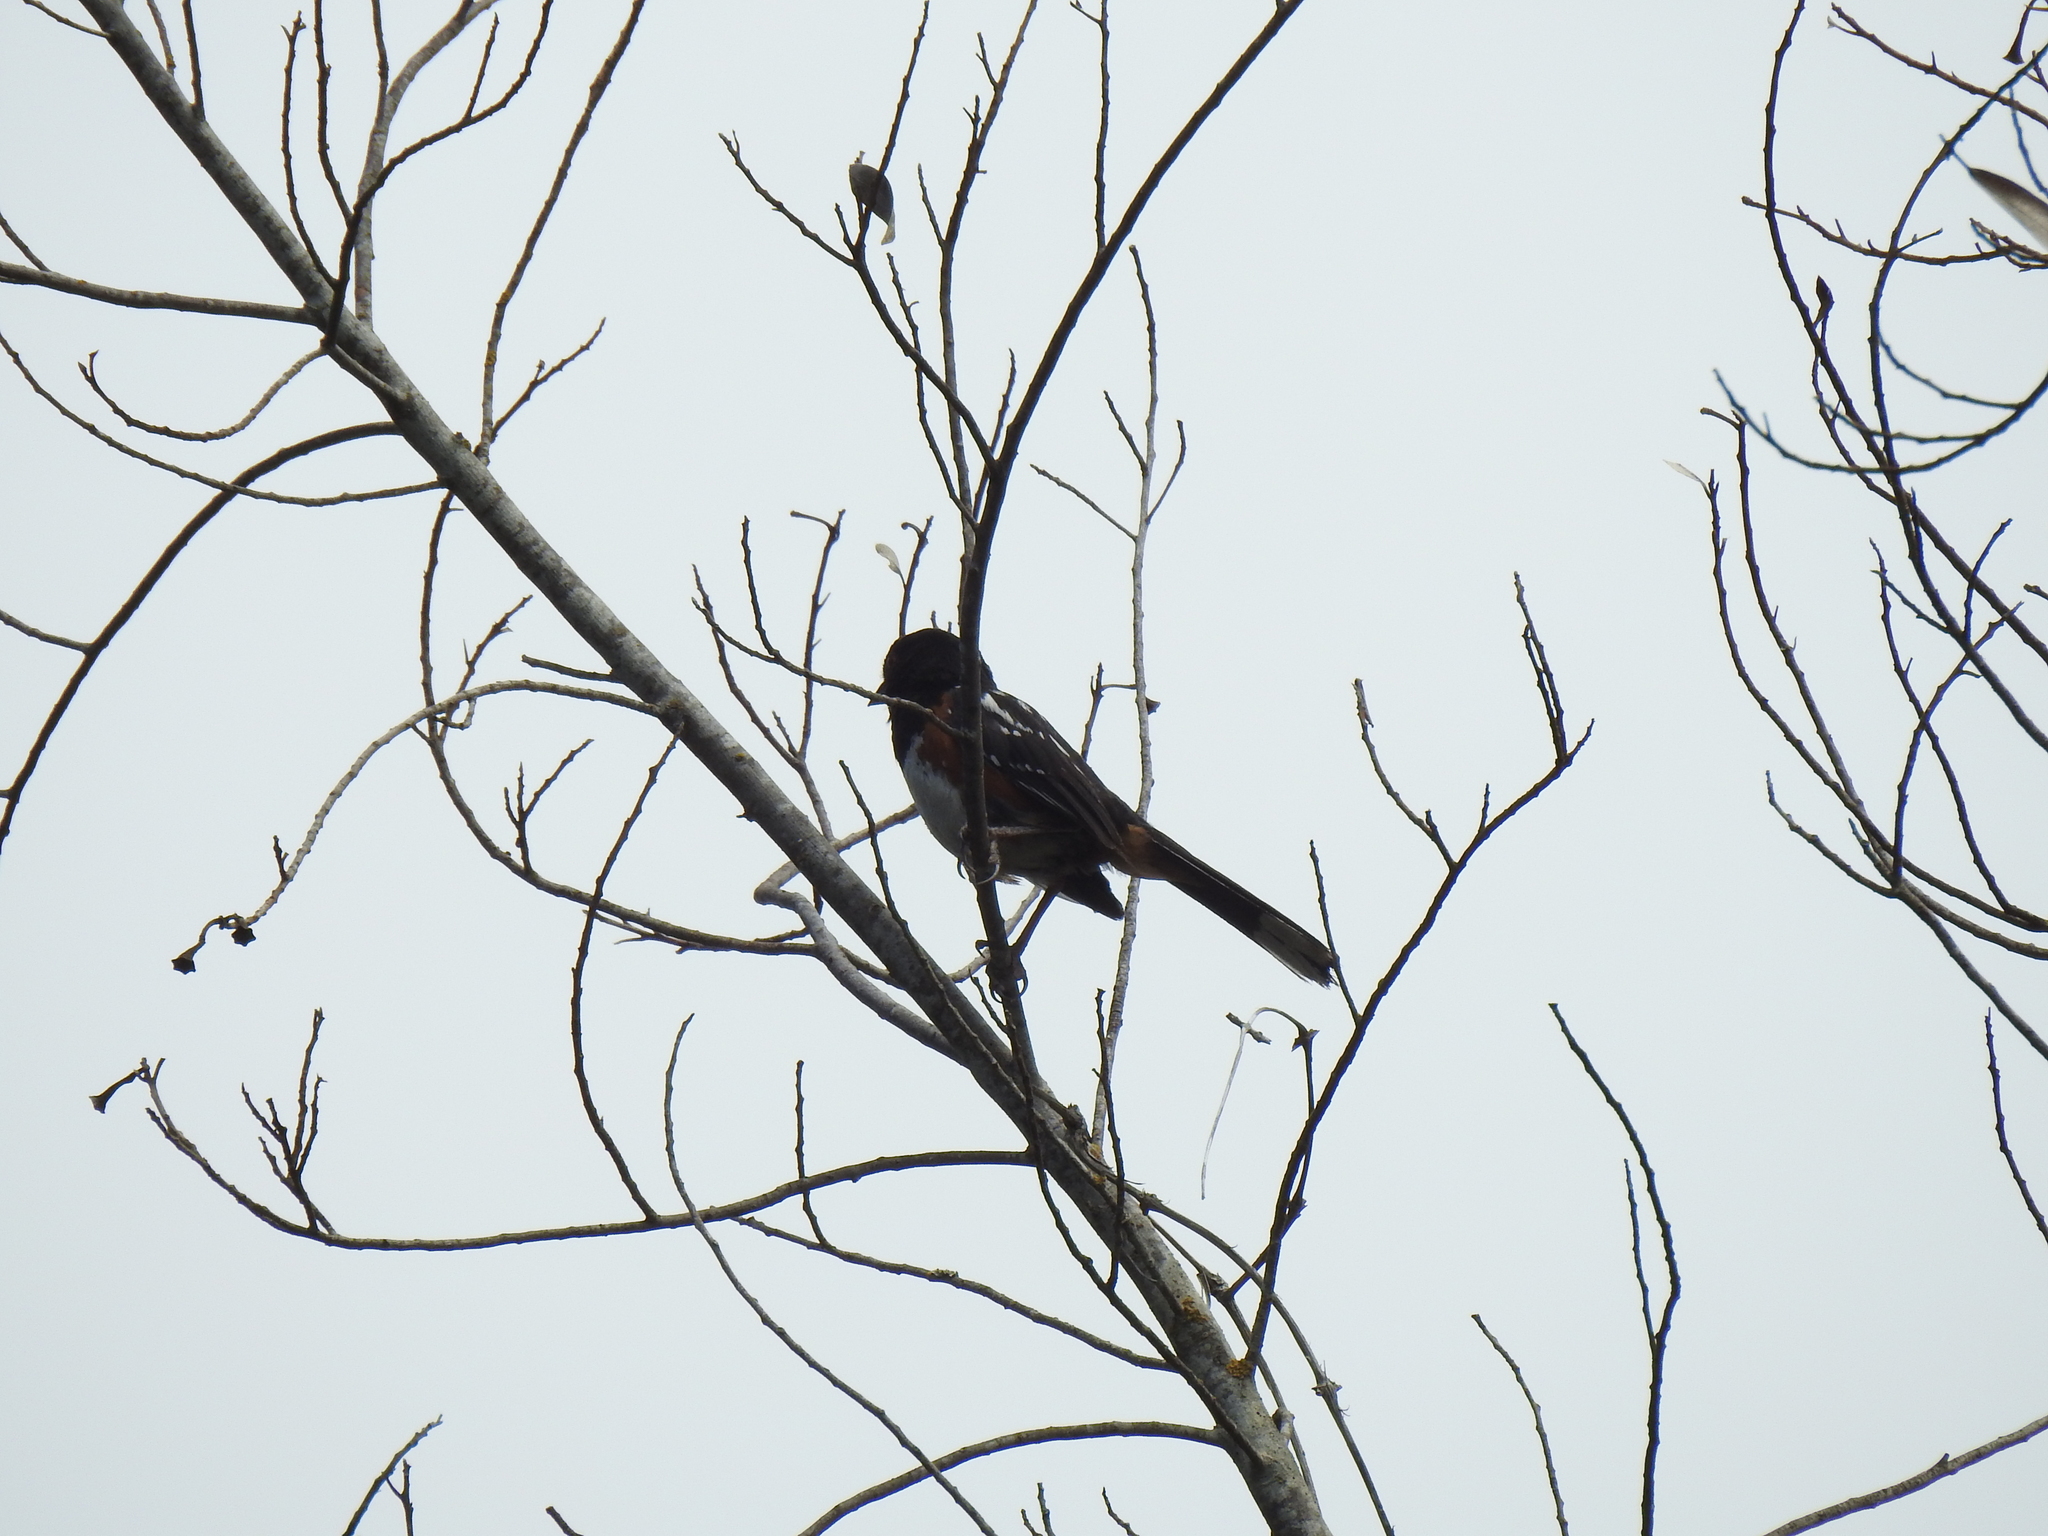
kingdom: Animalia
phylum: Chordata
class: Aves
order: Passeriformes
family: Passerellidae
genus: Pipilo
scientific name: Pipilo maculatus
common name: Spotted towhee
